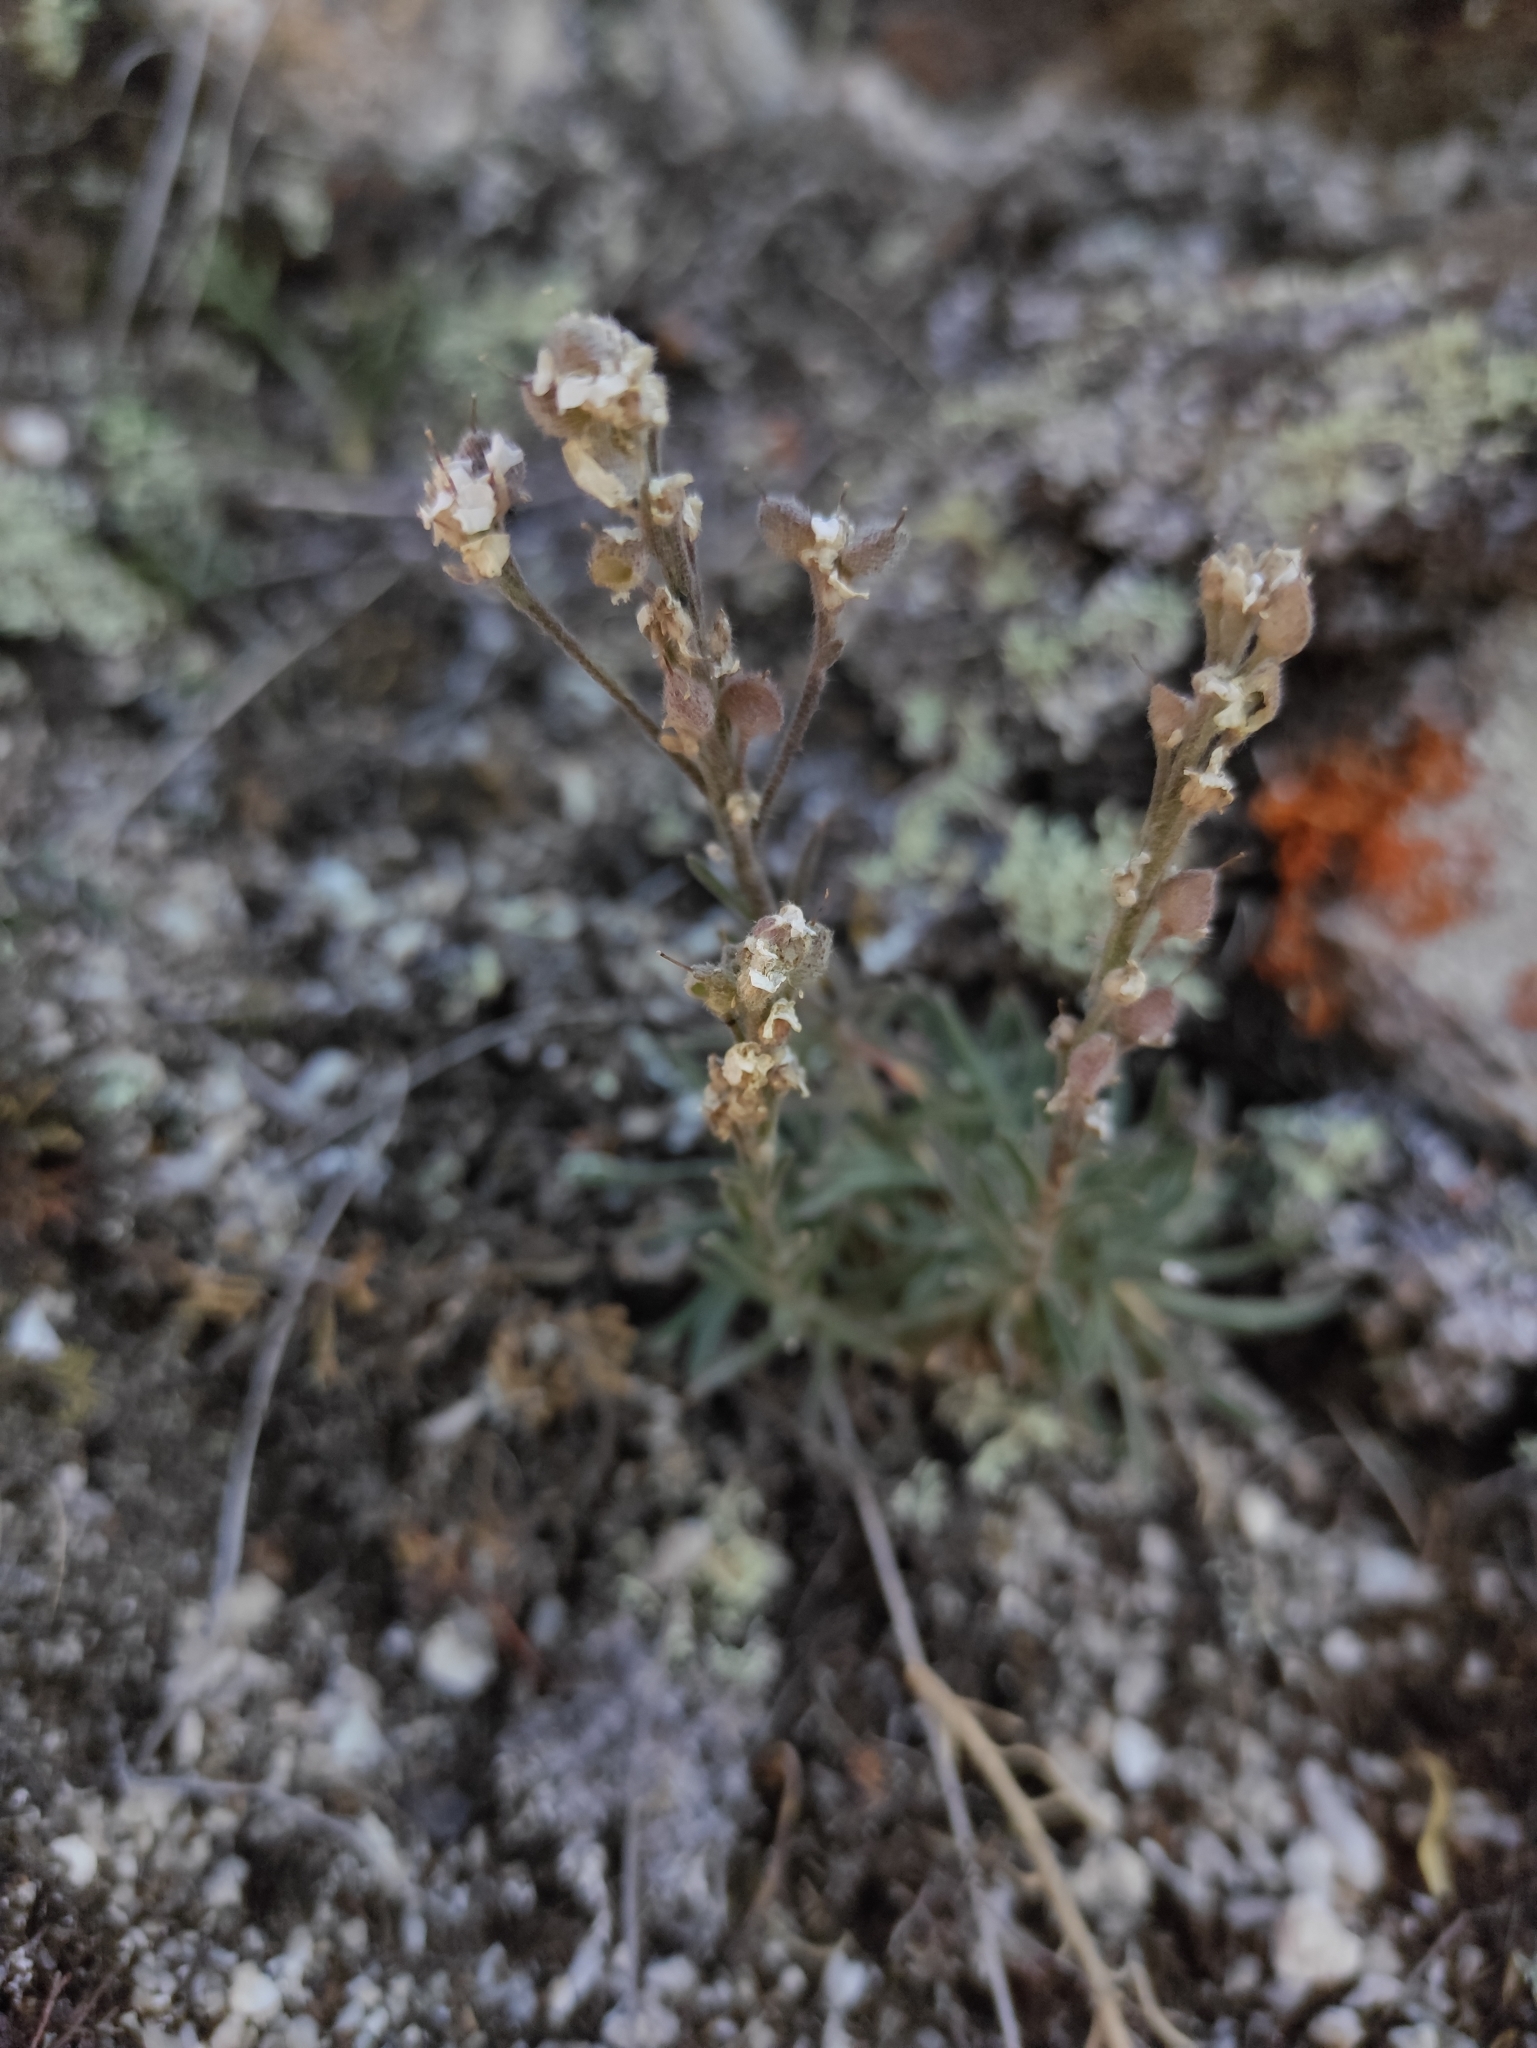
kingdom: Plantae
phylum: Tracheophyta
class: Magnoliopsida
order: Brassicales
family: Brassicaceae
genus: Stevenia
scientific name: Stevenia tenuifolia
